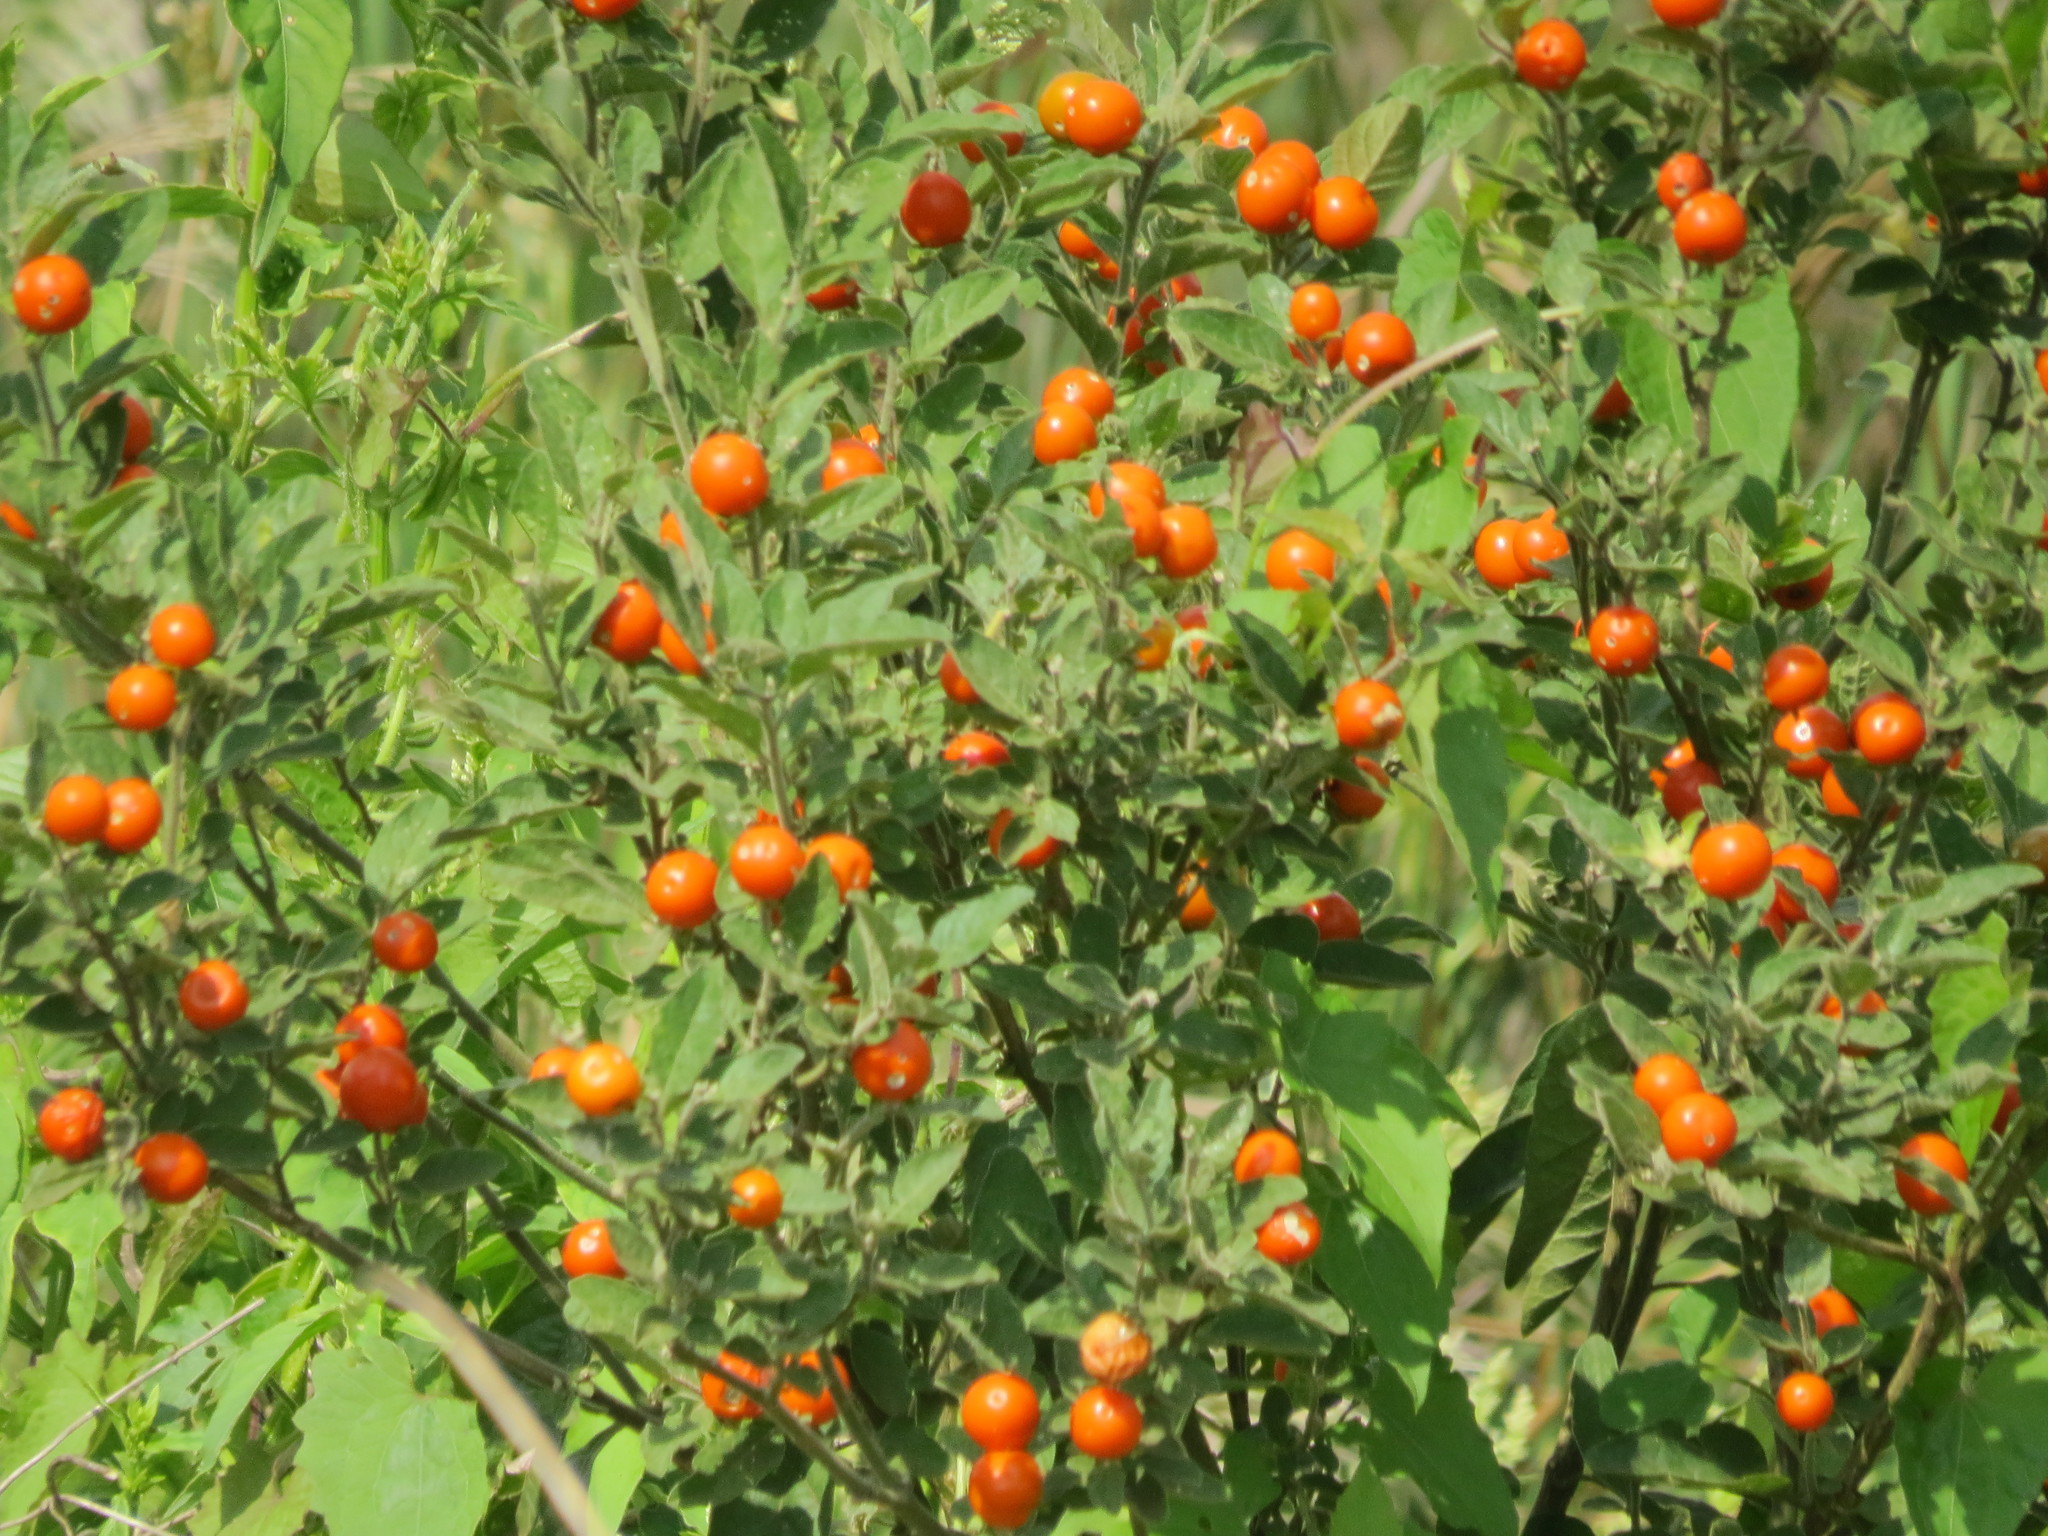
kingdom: Plantae
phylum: Tracheophyta
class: Magnoliopsida
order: Solanales
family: Solanaceae
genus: Solanum
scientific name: Solanum pseudocapsicum
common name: Jerusalem cherry
